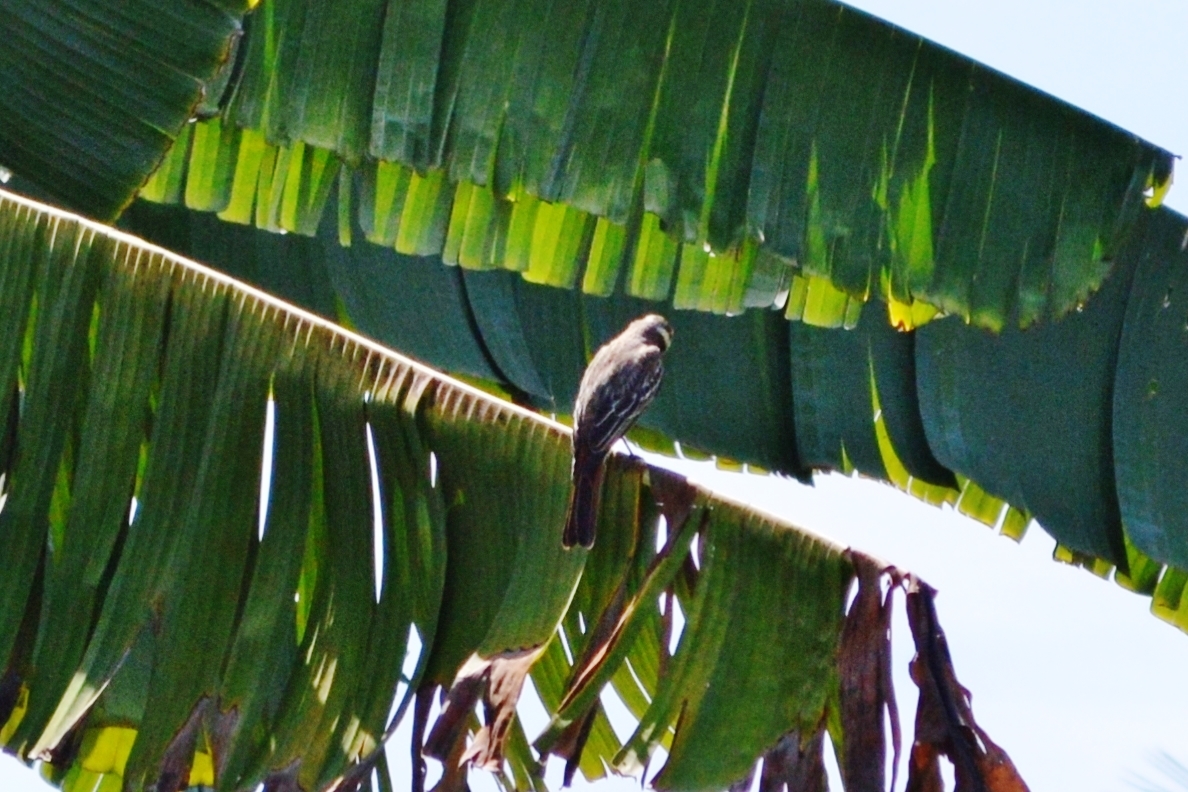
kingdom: Animalia
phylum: Chordata
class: Aves
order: Passeriformes
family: Tyrannidae
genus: Empidonomus
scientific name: Empidonomus varius
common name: Variegated flycatcher
